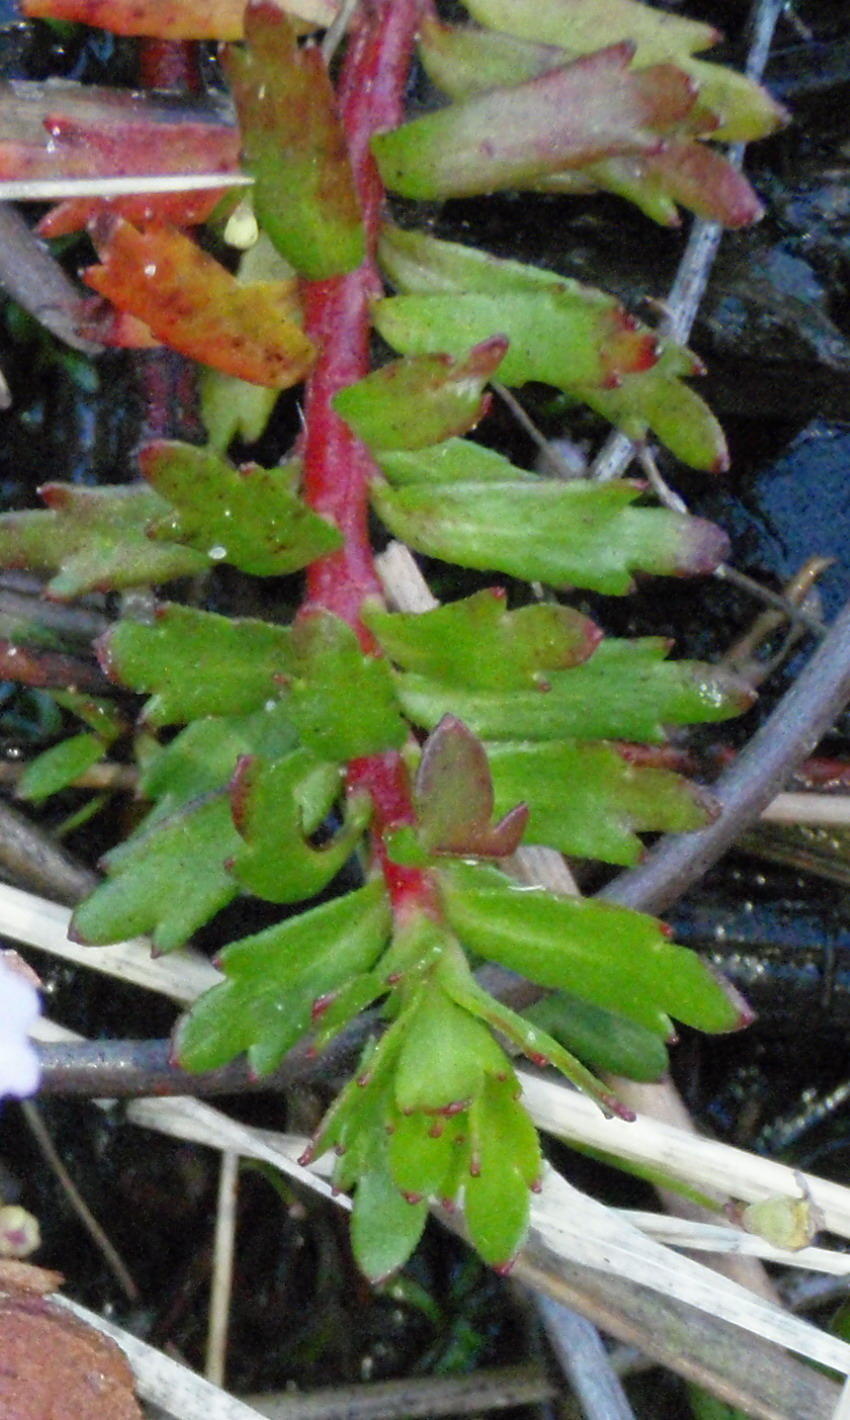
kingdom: Plantae
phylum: Tracheophyta
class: Magnoliopsida
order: Saxifragales
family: Haloragaceae
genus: Laurembergia
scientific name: Laurembergia repens
